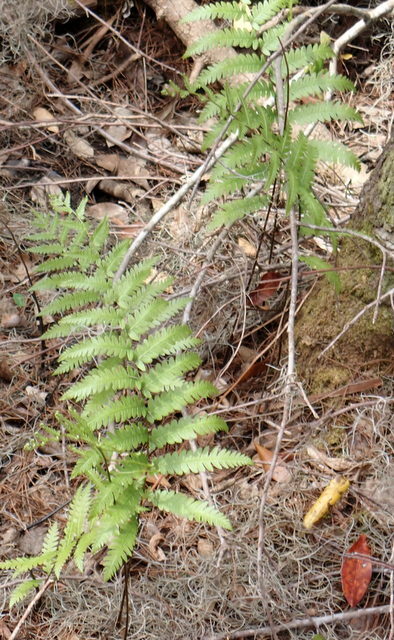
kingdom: Plantae
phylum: Tracheophyta
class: Polypodiopsida
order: Polypodiales
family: Blechnaceae
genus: Anchistea
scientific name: Anchistea virginica
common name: Virginia chain fern
